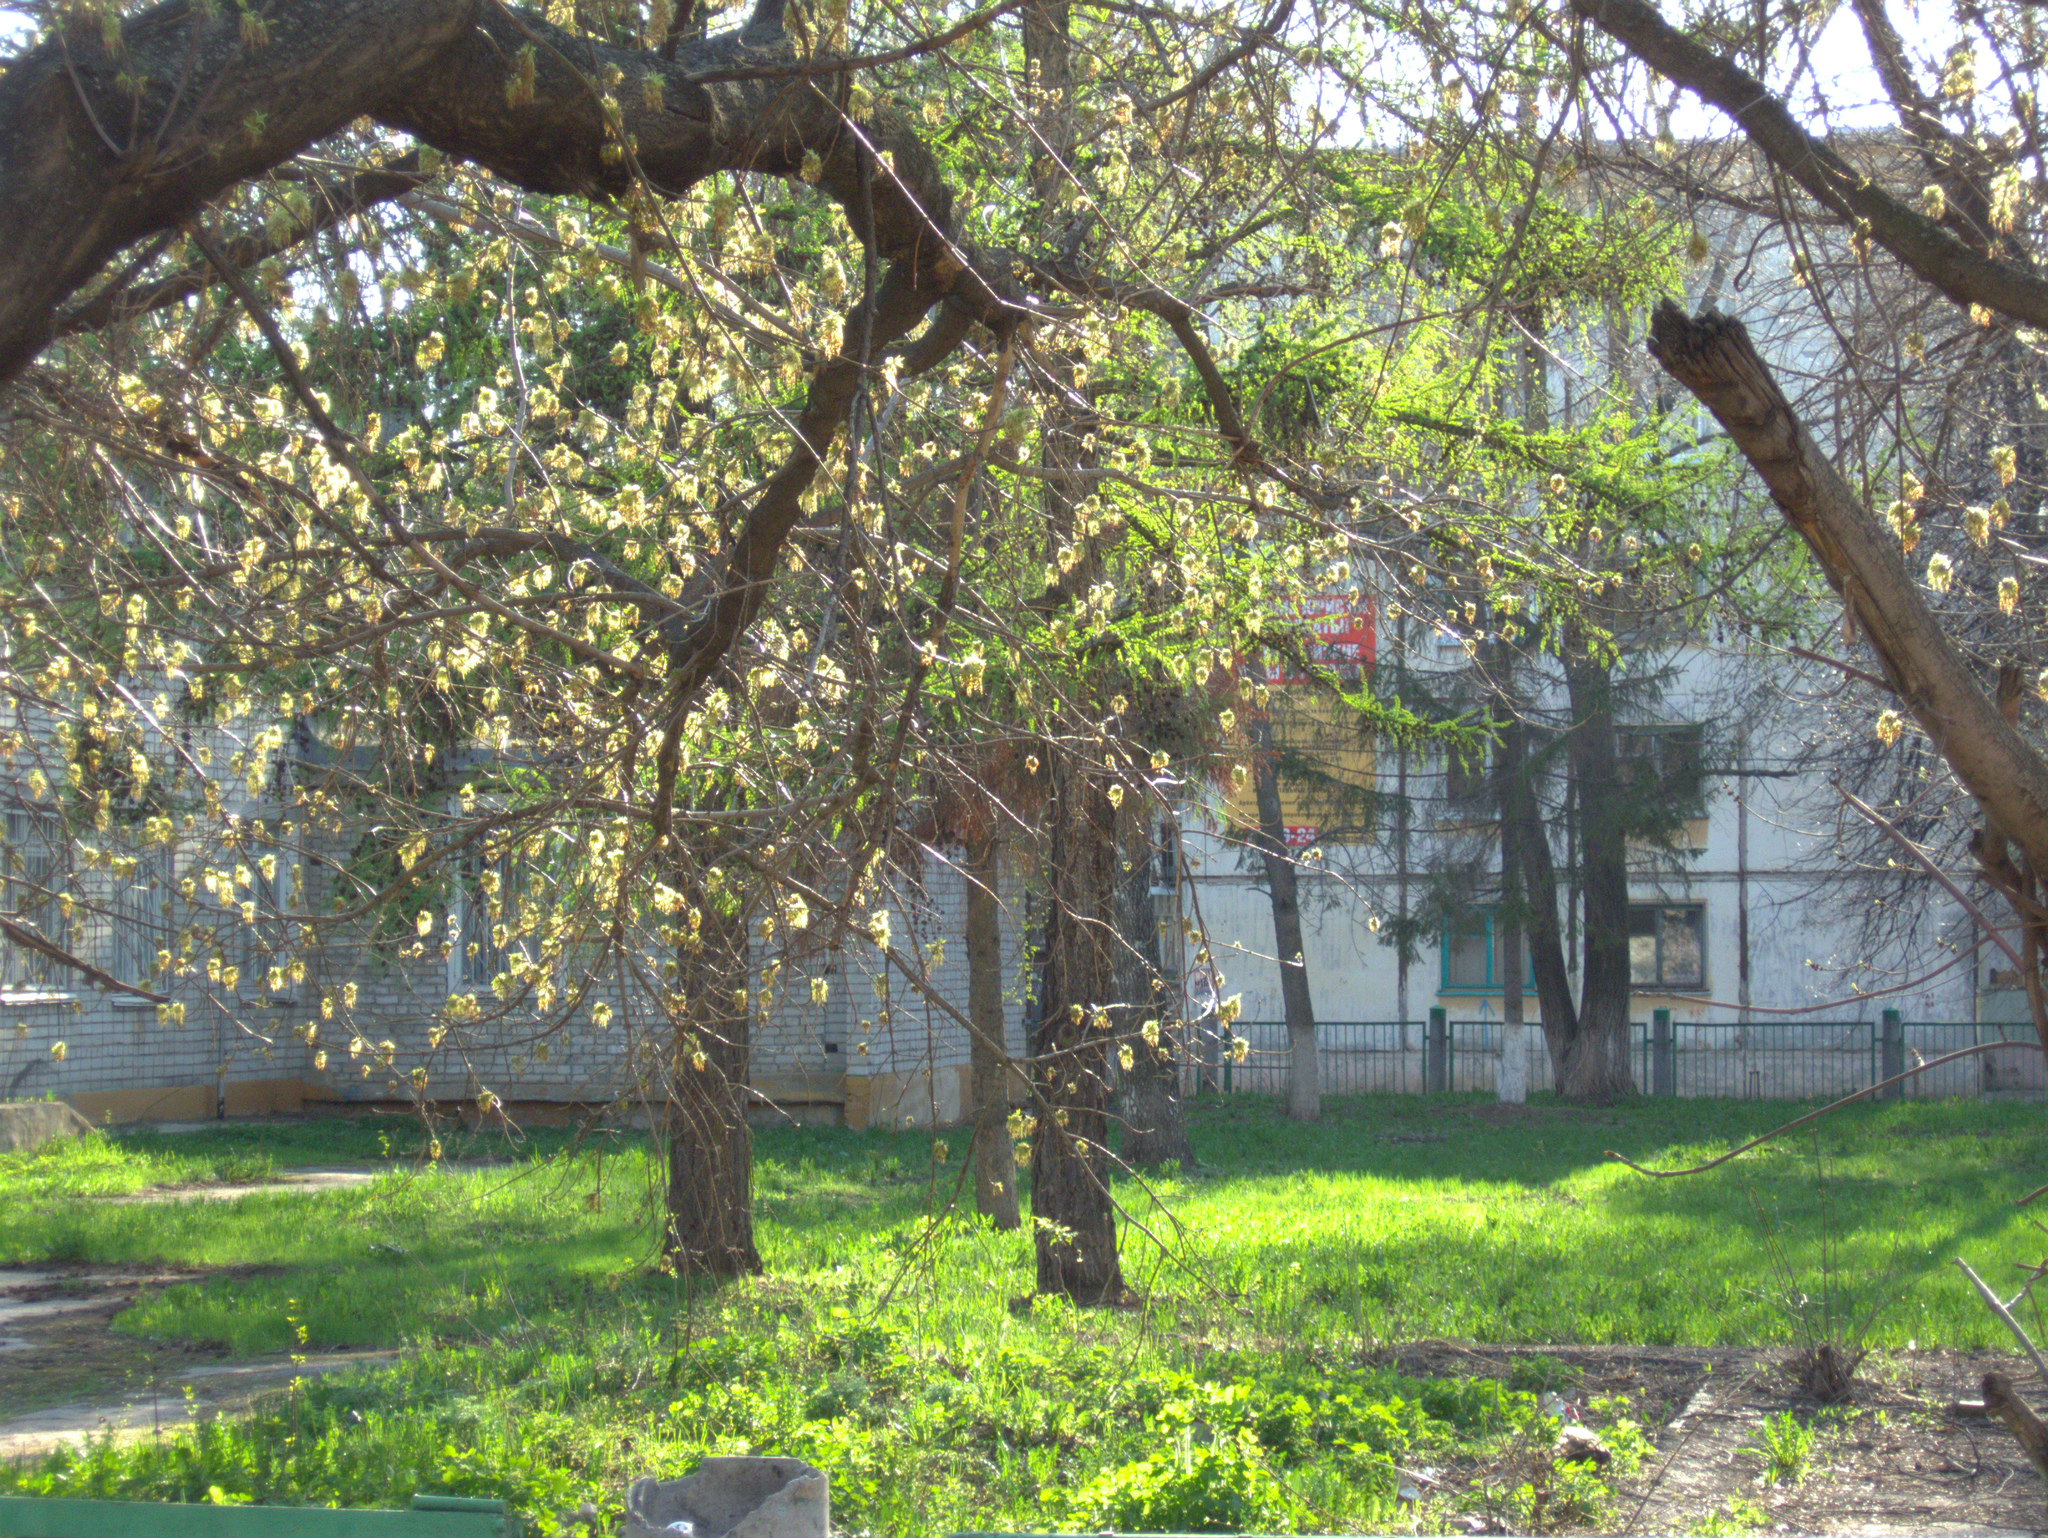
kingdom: Plantae
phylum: Tracheophyta
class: Magnoliopsida
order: Sapindales
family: Sapindaceae
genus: Acer
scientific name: Acer negundo
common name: Ashleaf maple
